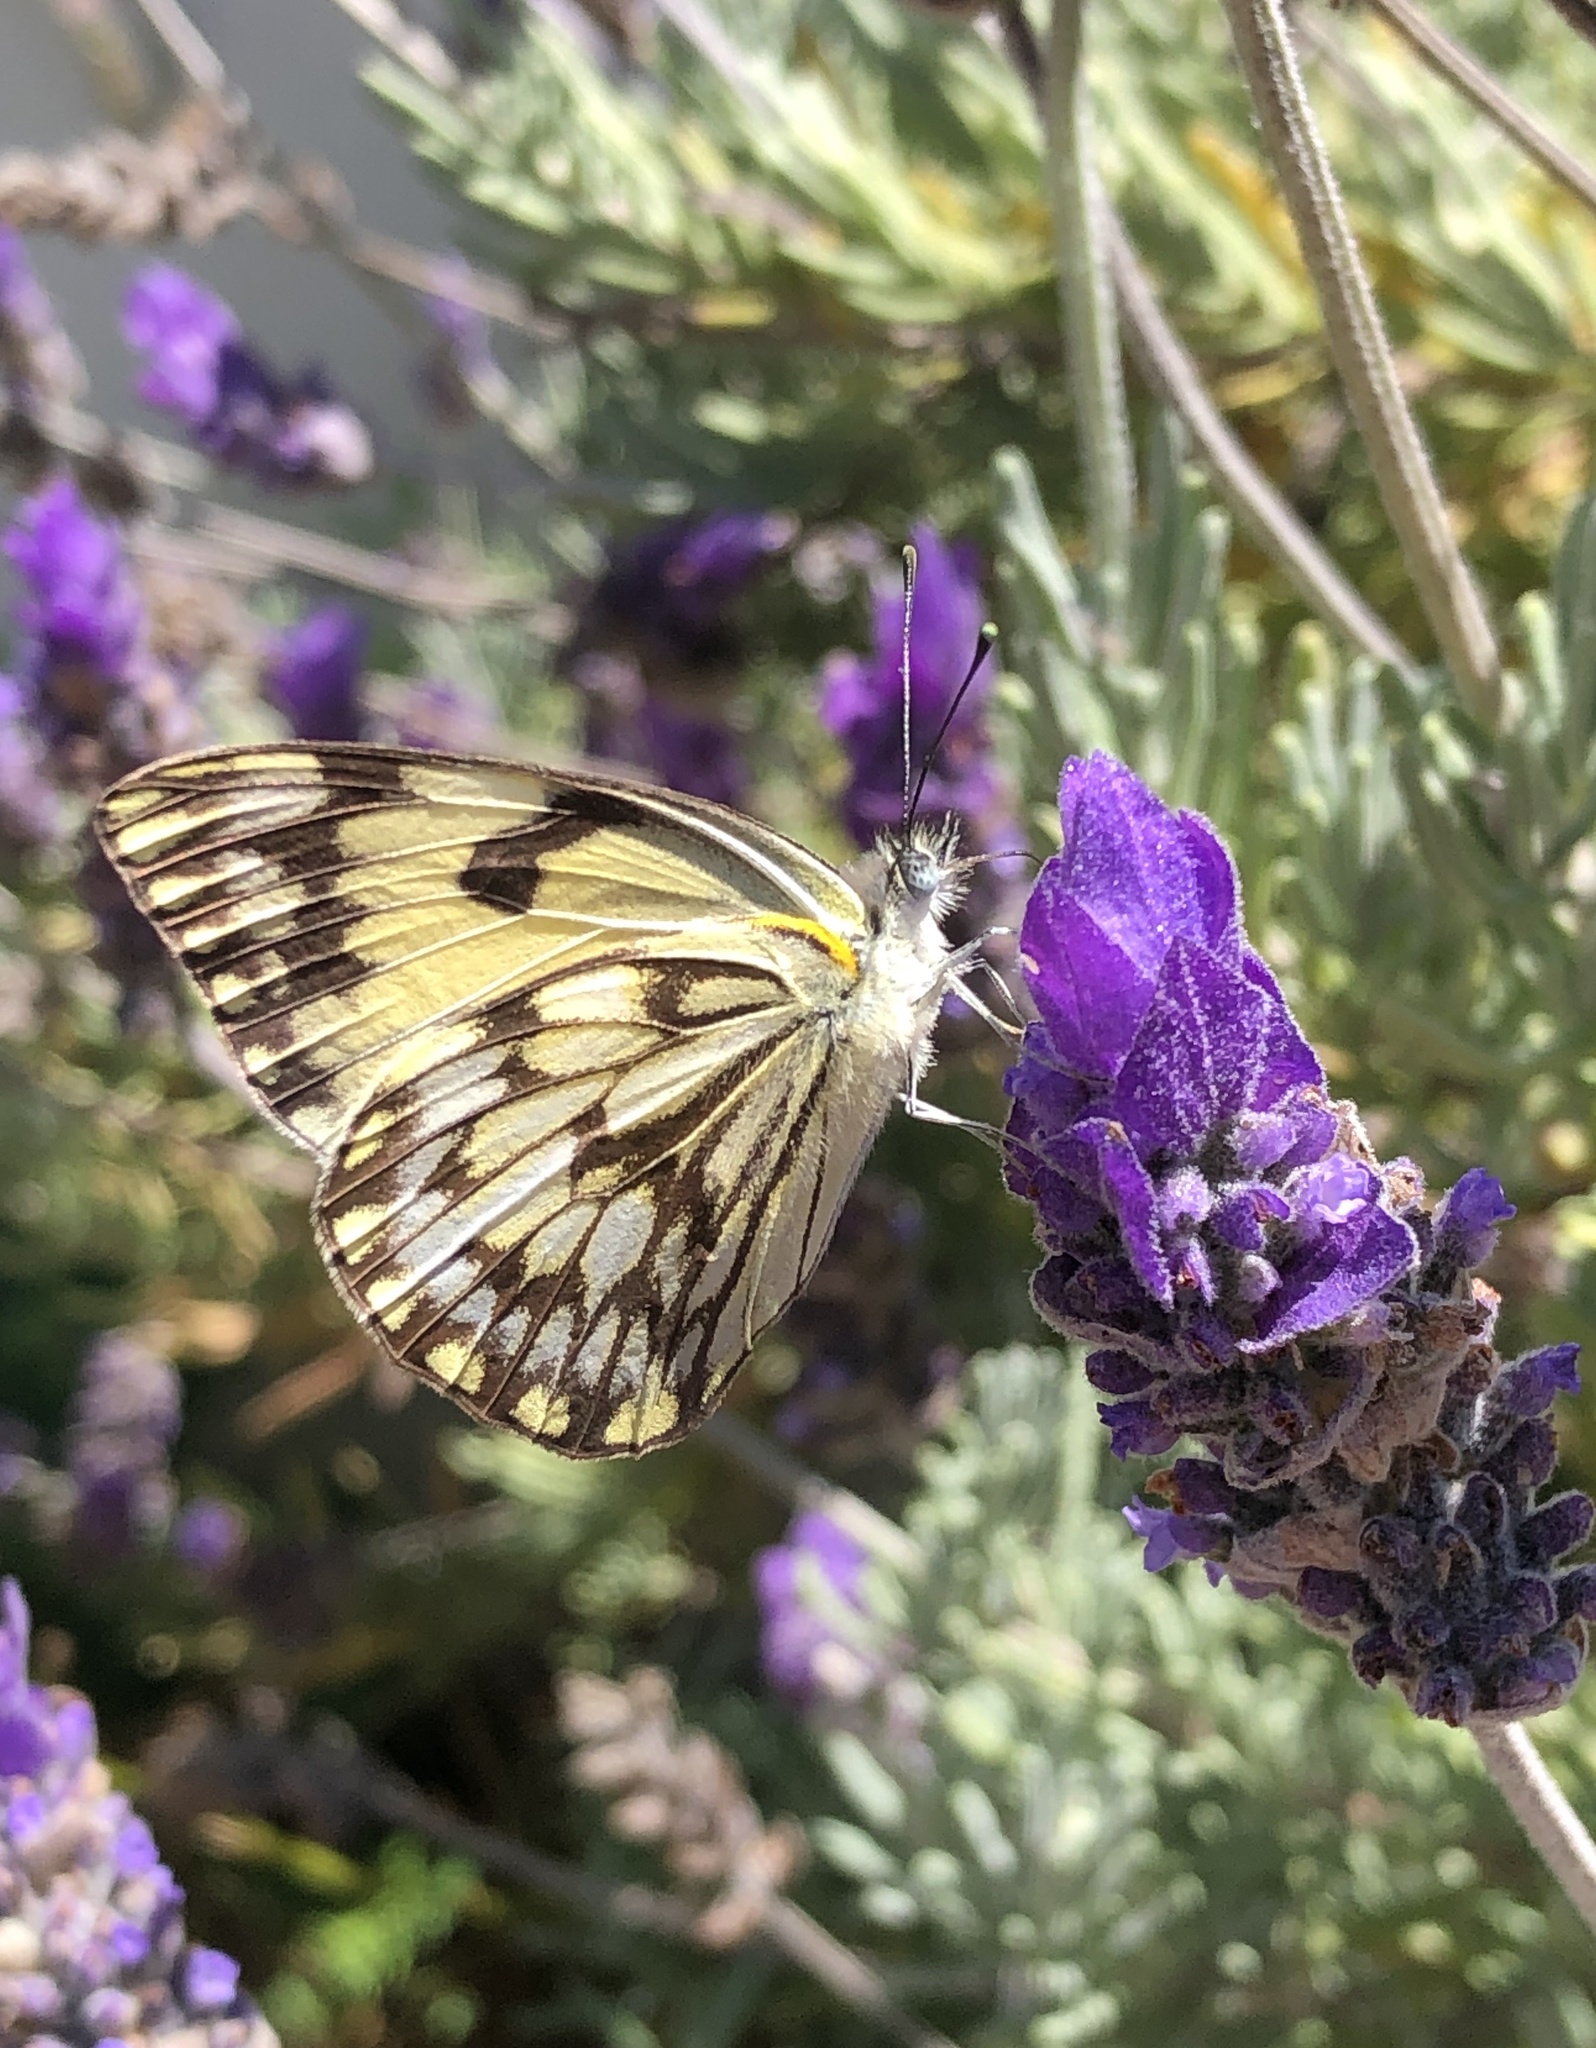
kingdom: Animalia
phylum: Arthropoda
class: Insecta
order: Lepidoptera
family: Pieridae
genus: Belenois
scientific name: Belenois gidica
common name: Pointed caper white
